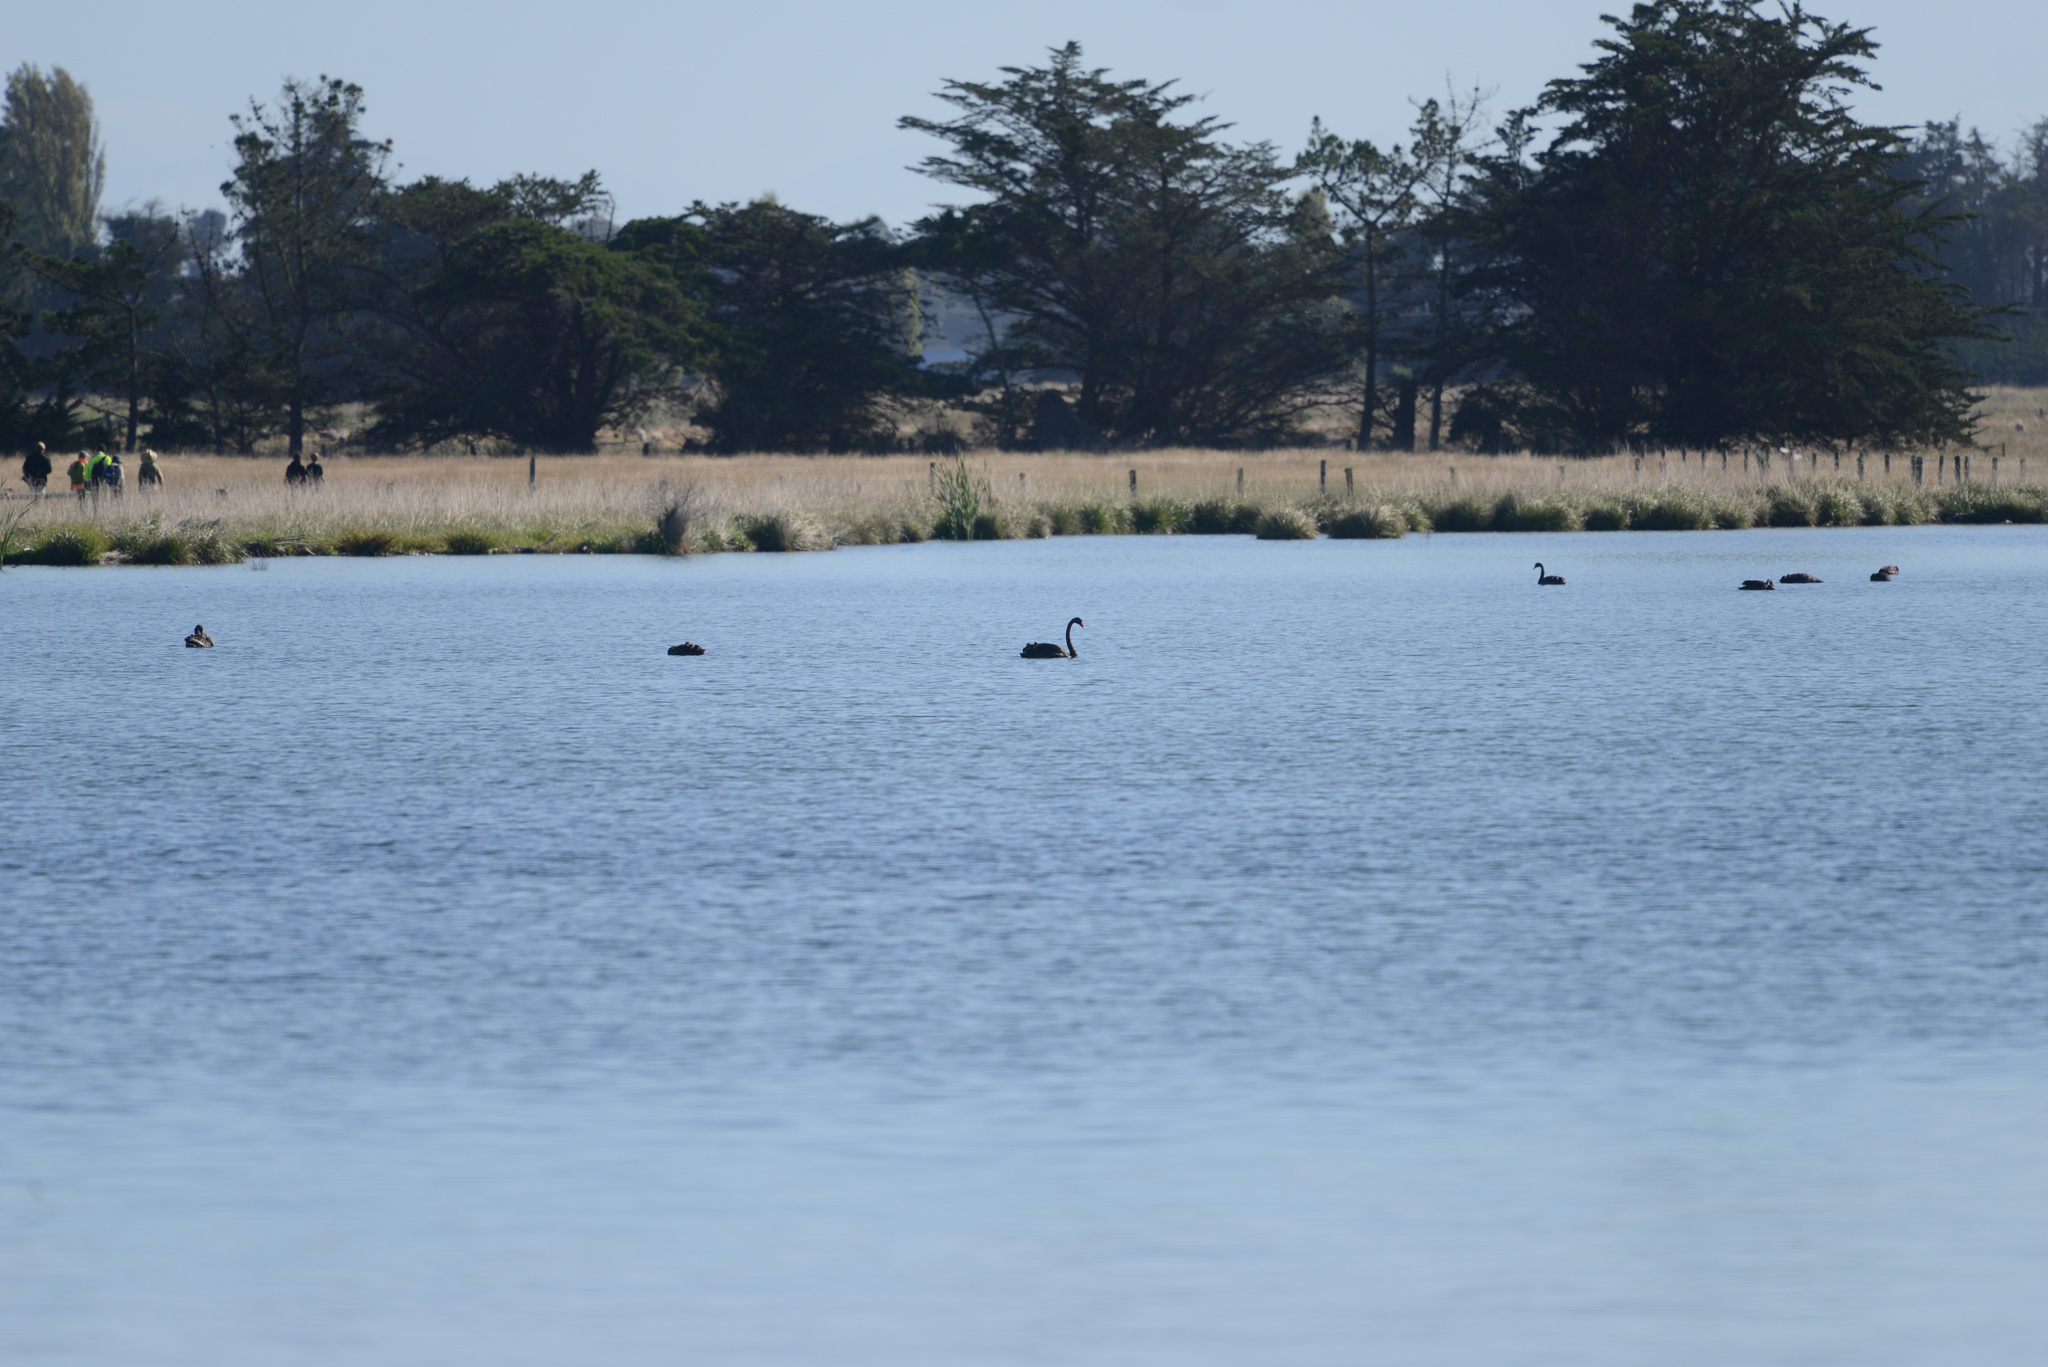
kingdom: Animalia
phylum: Chordata
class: Aves
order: Anseriformes
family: Anatidae
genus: Cygnus
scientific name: Cygnus atratus
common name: Black swan
